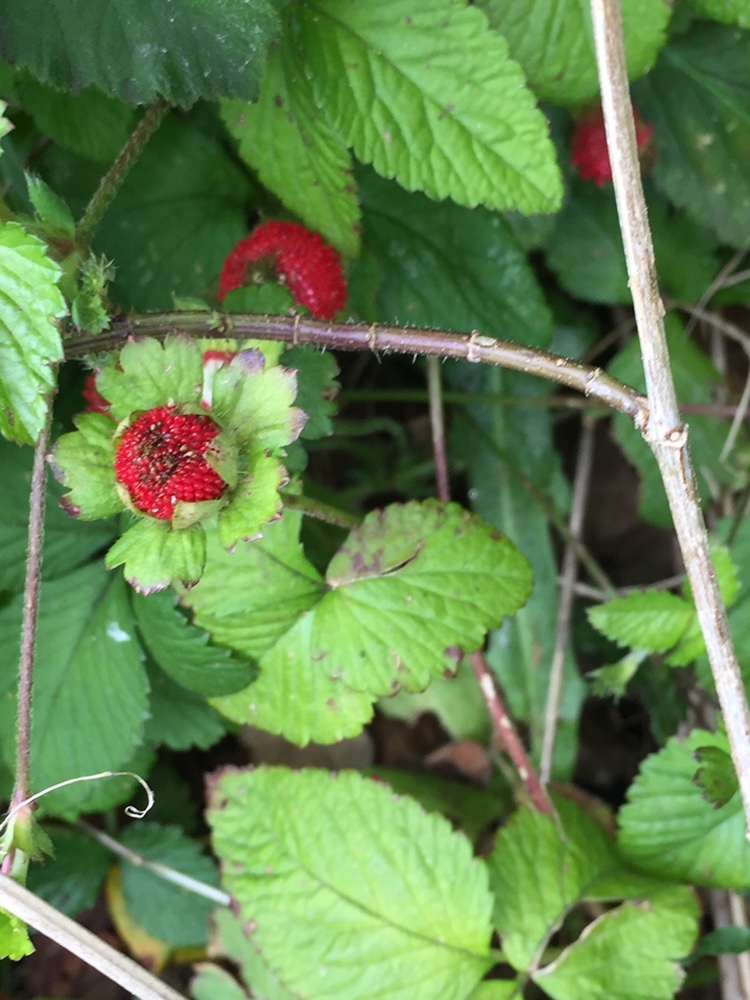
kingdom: Plantae
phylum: Tracheophyta
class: Magnoliopsida
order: Rosales
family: Rosaceae
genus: Potentilla
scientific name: Potentilla indica
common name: Yellow-flowered strawberry
